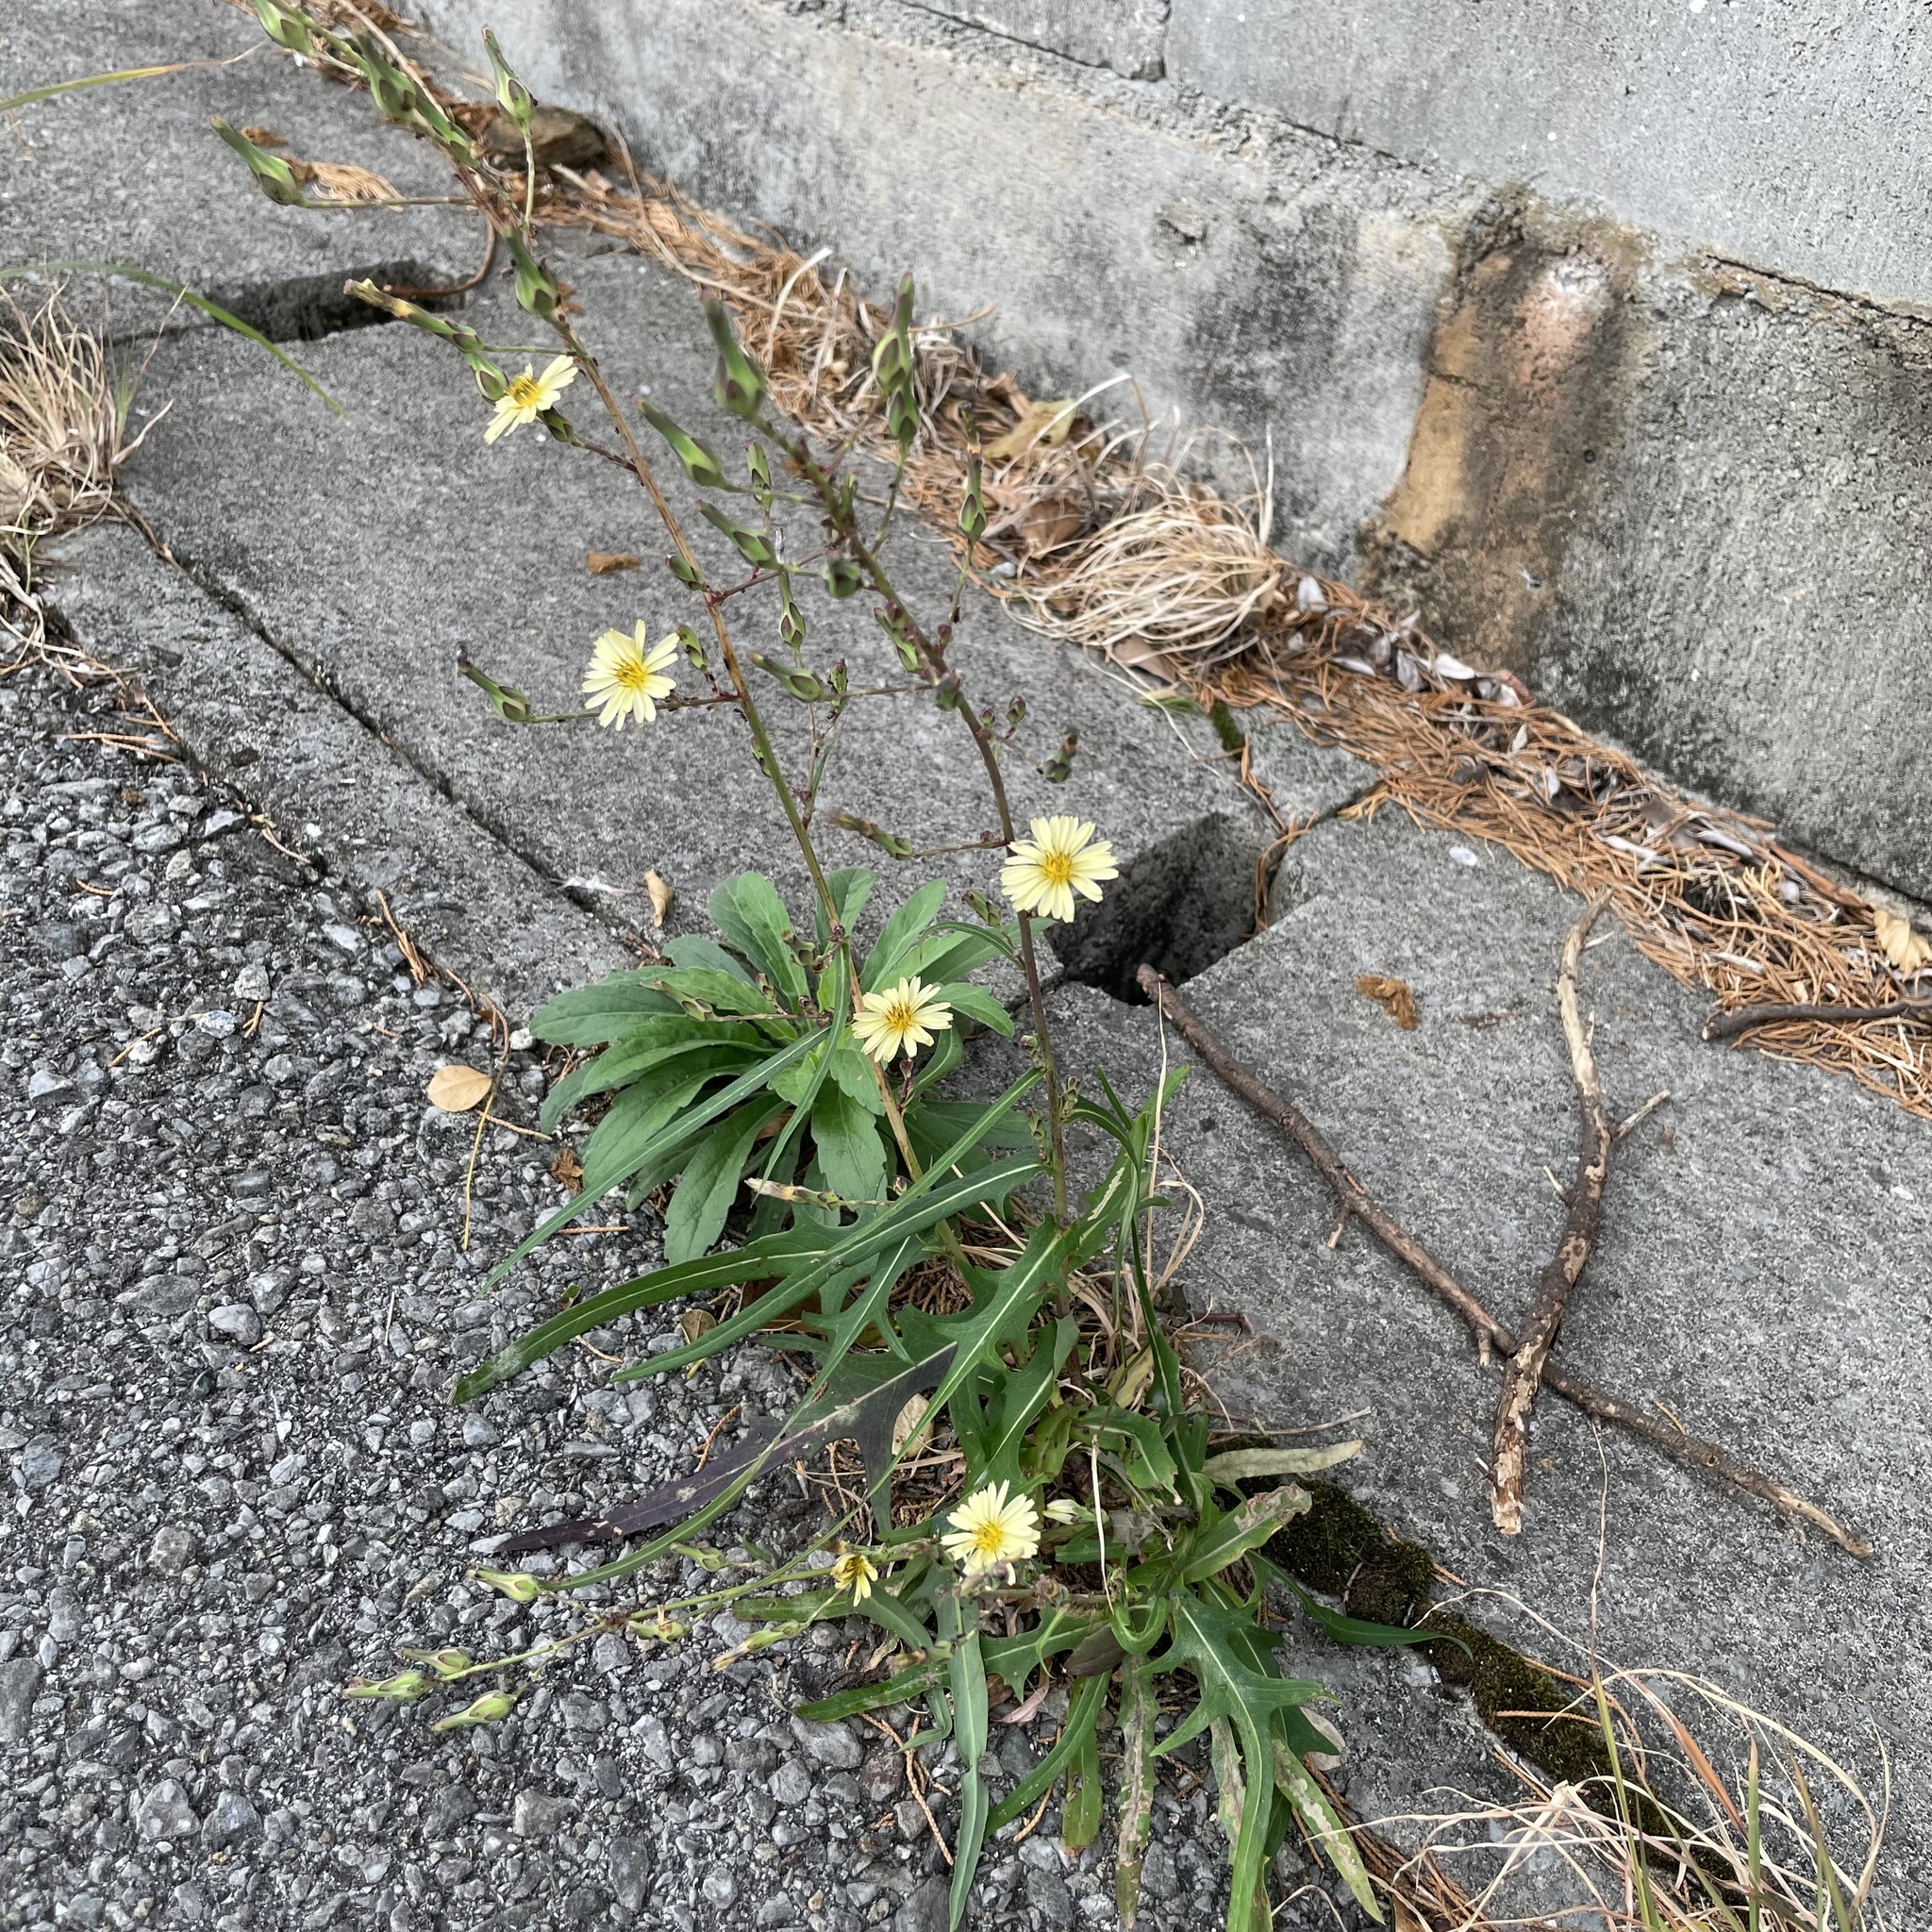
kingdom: Plantae
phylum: Tracheophyta
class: Magnoliopsida
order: Asterales
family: Asteraceae
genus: Lactuca
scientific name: Lactuca indica
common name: Wild lettuce
